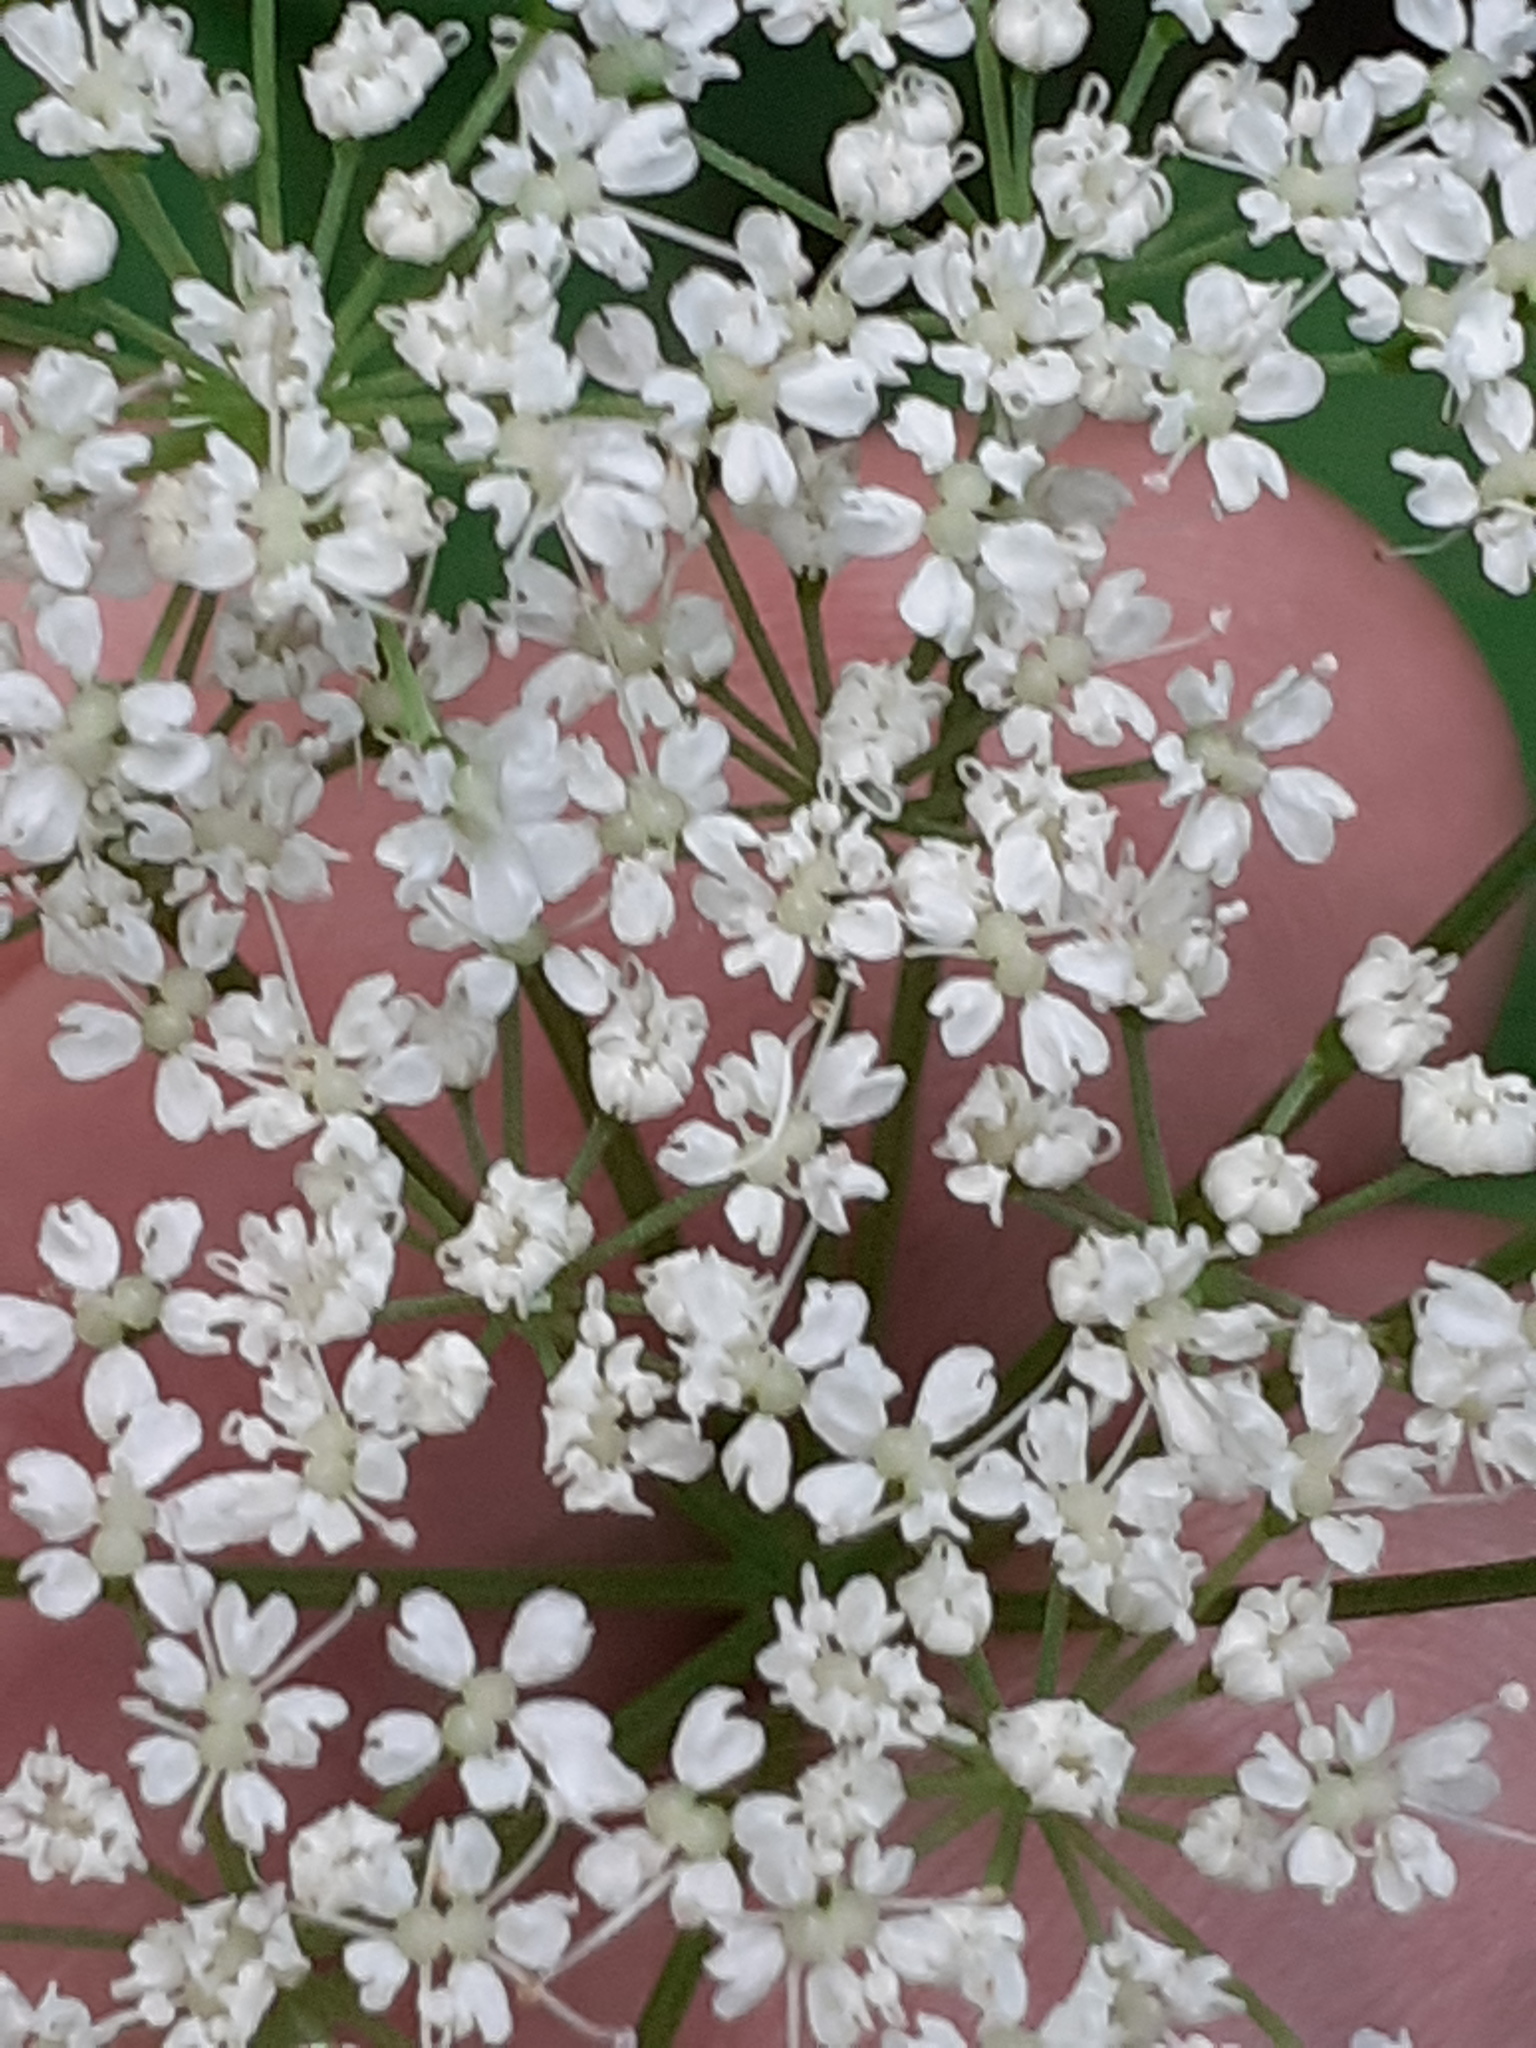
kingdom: Plantae
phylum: Tracheophyta
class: Magnoliopsida
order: Apiales
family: Apiaceae
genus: Aegopodium
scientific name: Aegopodium podagraria
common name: Ground-elder
